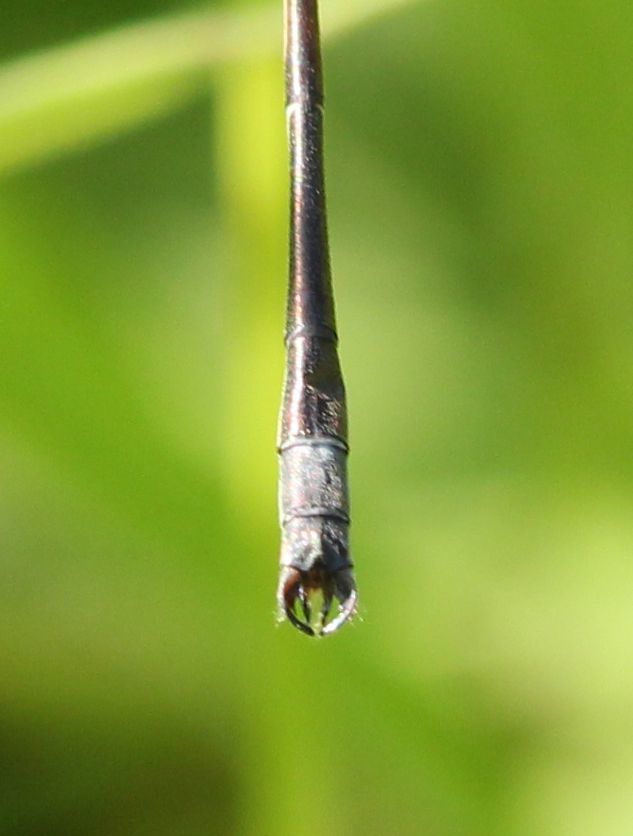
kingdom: Animalia
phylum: Arthropoda
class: Insecta
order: Odonata
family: Lestidae
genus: Lestes
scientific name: Lestes rectangularis
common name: Slender spreadwing
